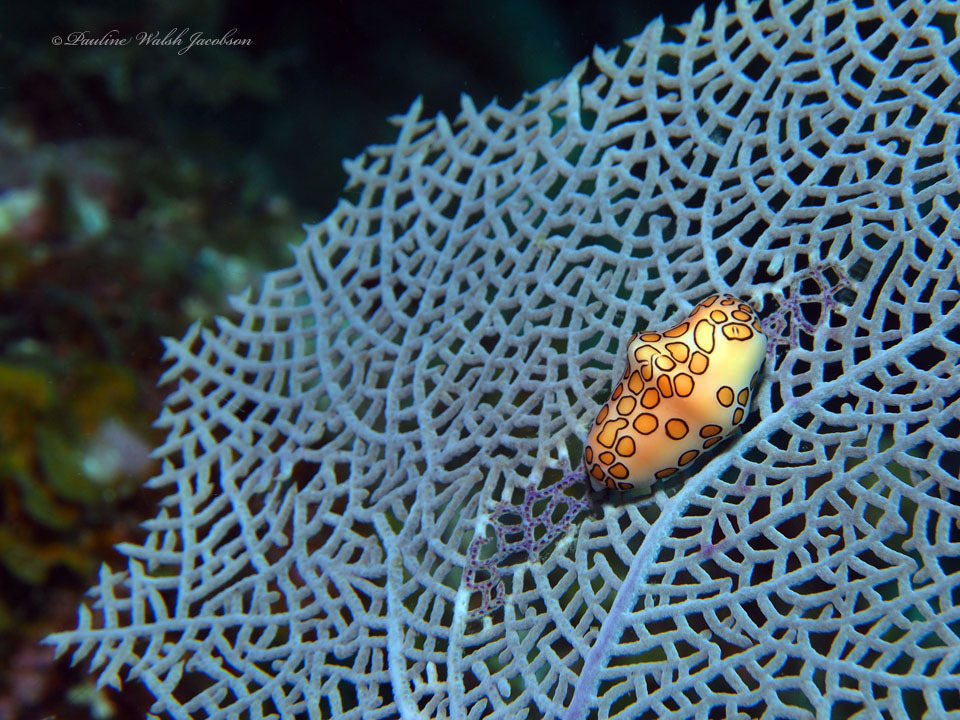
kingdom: Animalia
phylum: Mollusca
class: Gastropoda
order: Littorinimorpha
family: Ovulidae
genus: Cyphoma
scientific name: Cyphoma gibbosum
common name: Flamingo tongue
